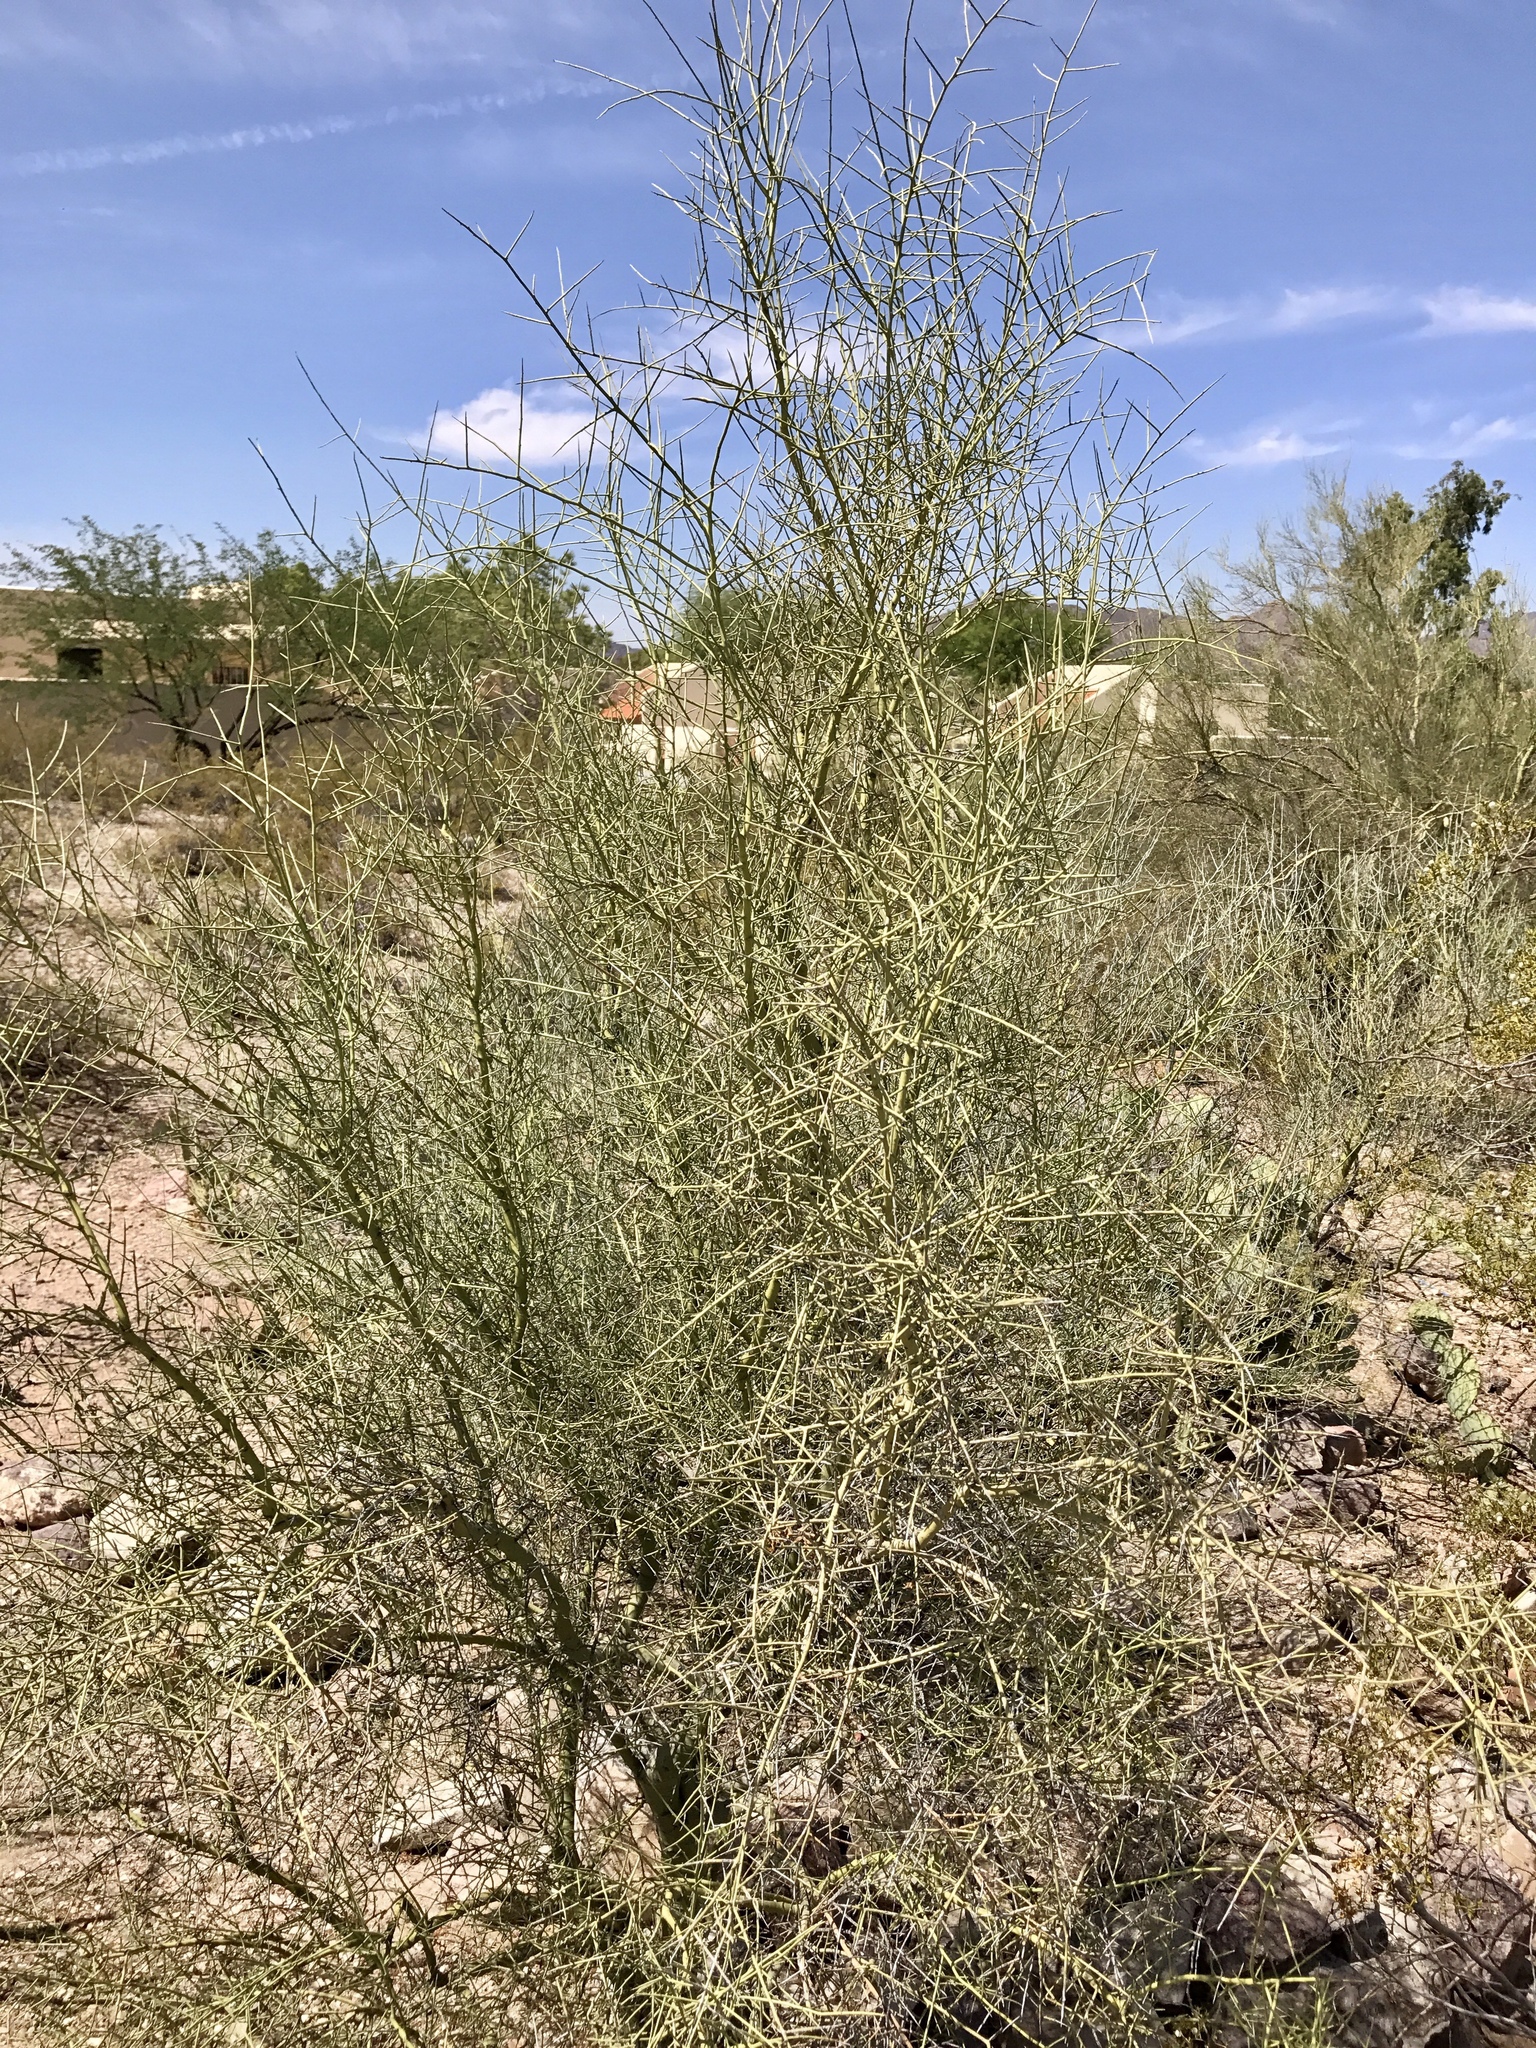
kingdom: Plantae
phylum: Tracheophyta
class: Magnoliopsida
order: Fabales
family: Fabaceae
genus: Parkinsonia
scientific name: Parkinsonia florida
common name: Blue paloverde
